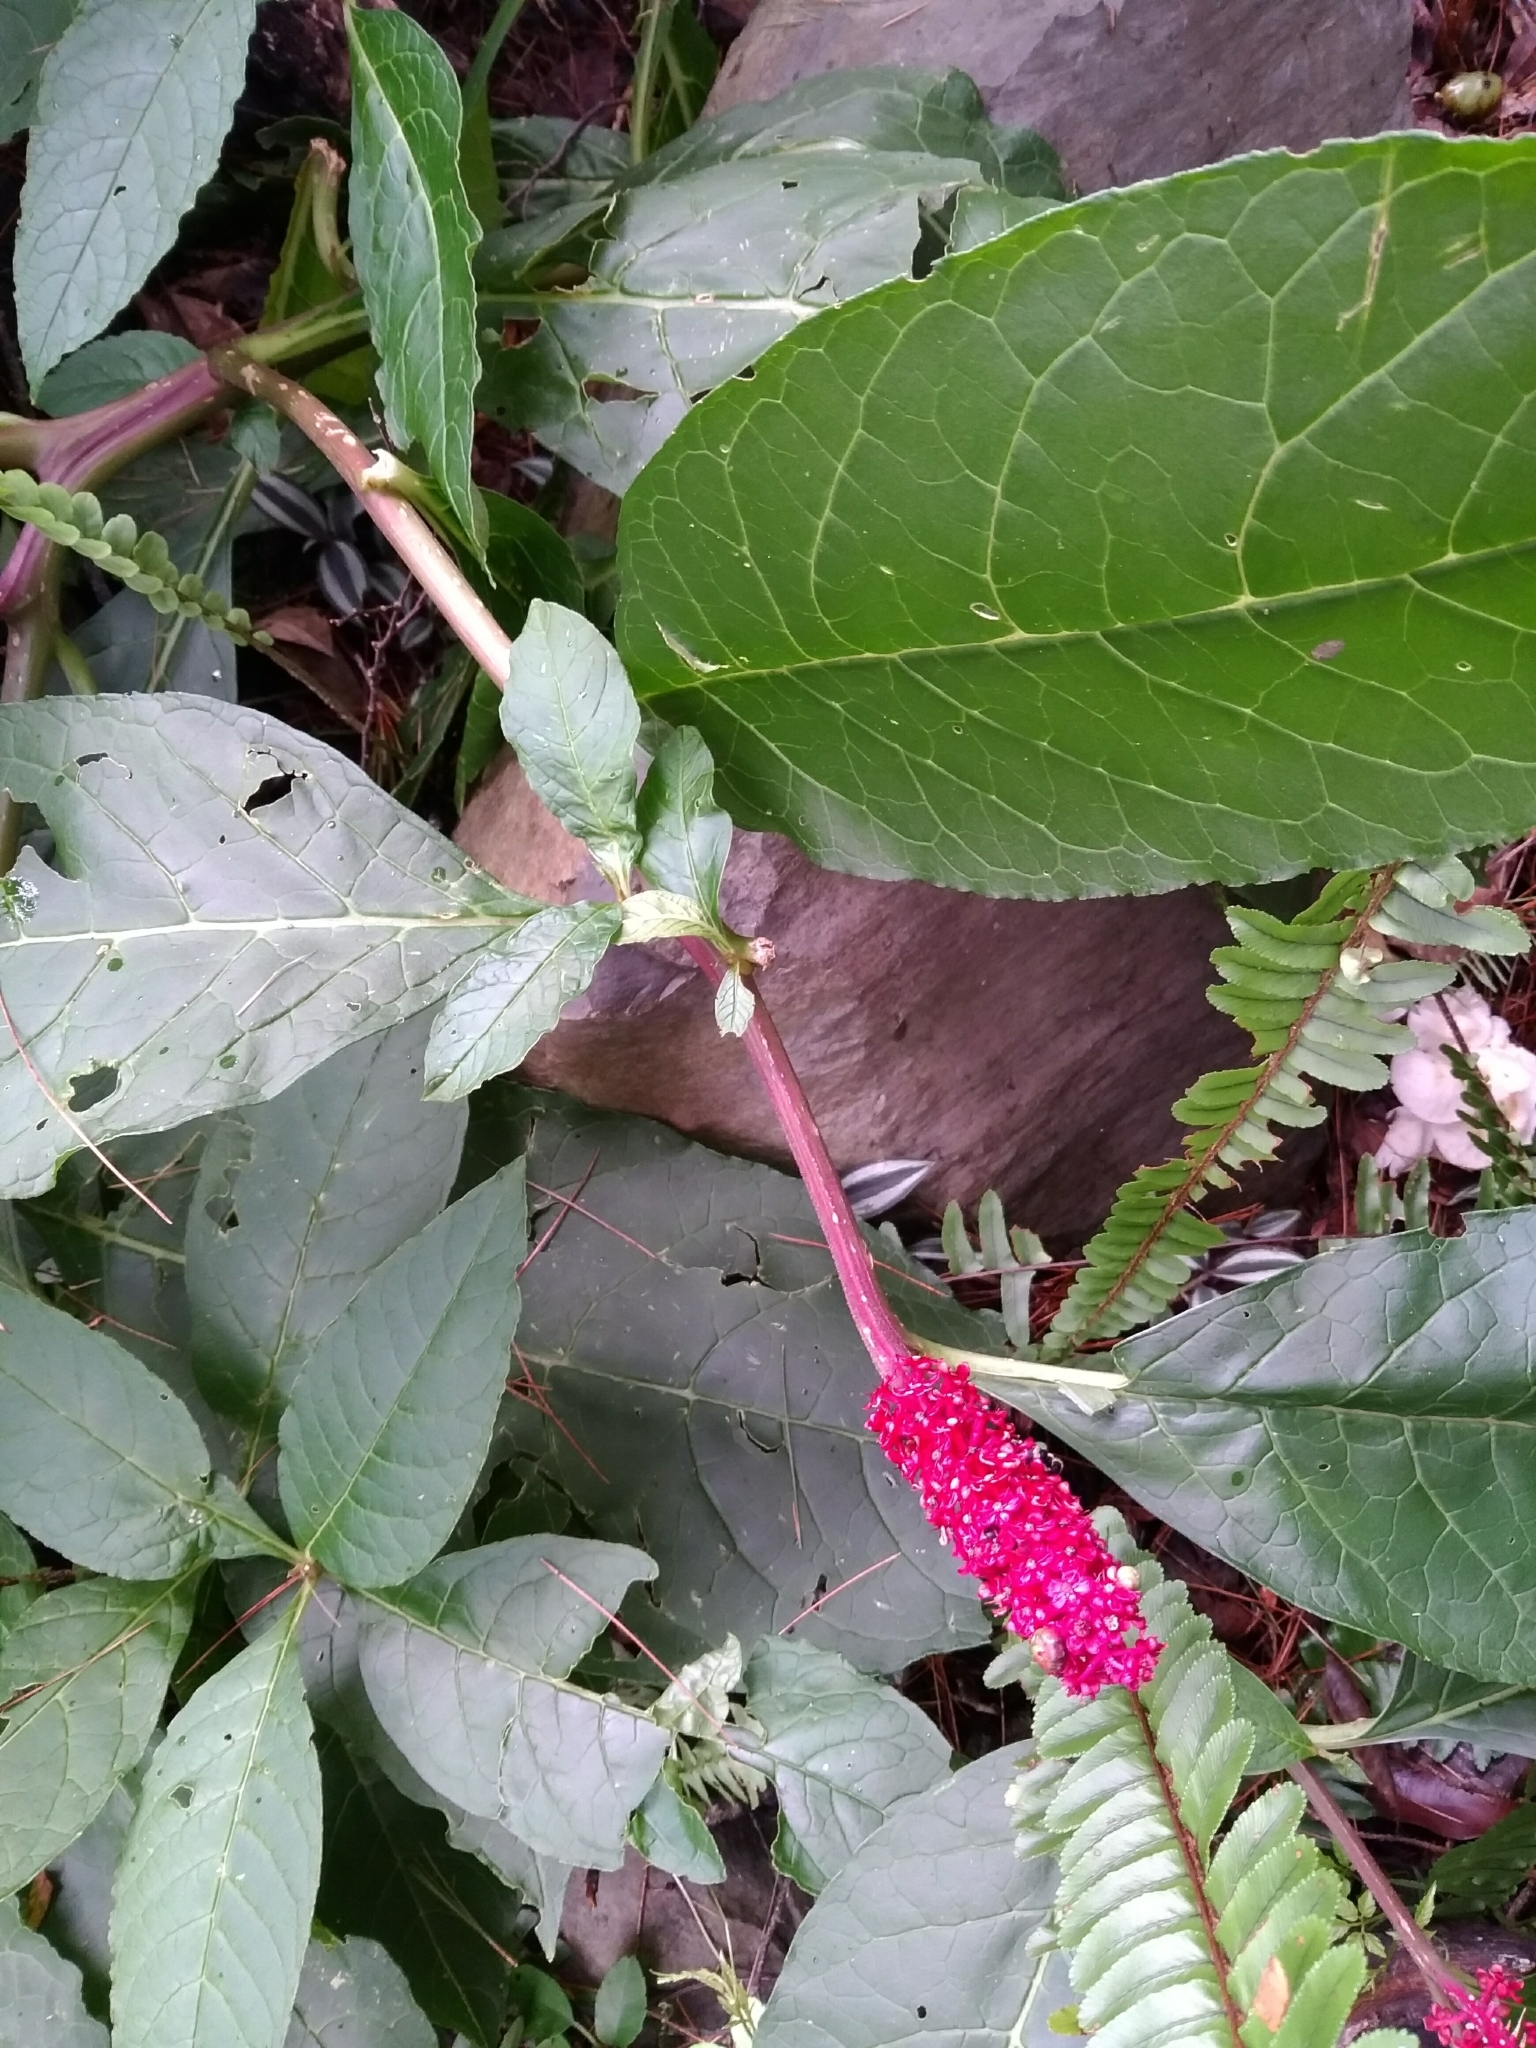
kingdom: Plantae
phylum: Tracheophyta
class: Magnoliopsida
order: Caryophyllales
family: Phytolaccaceae
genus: Phytolacca
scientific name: Phytolacca japonica
